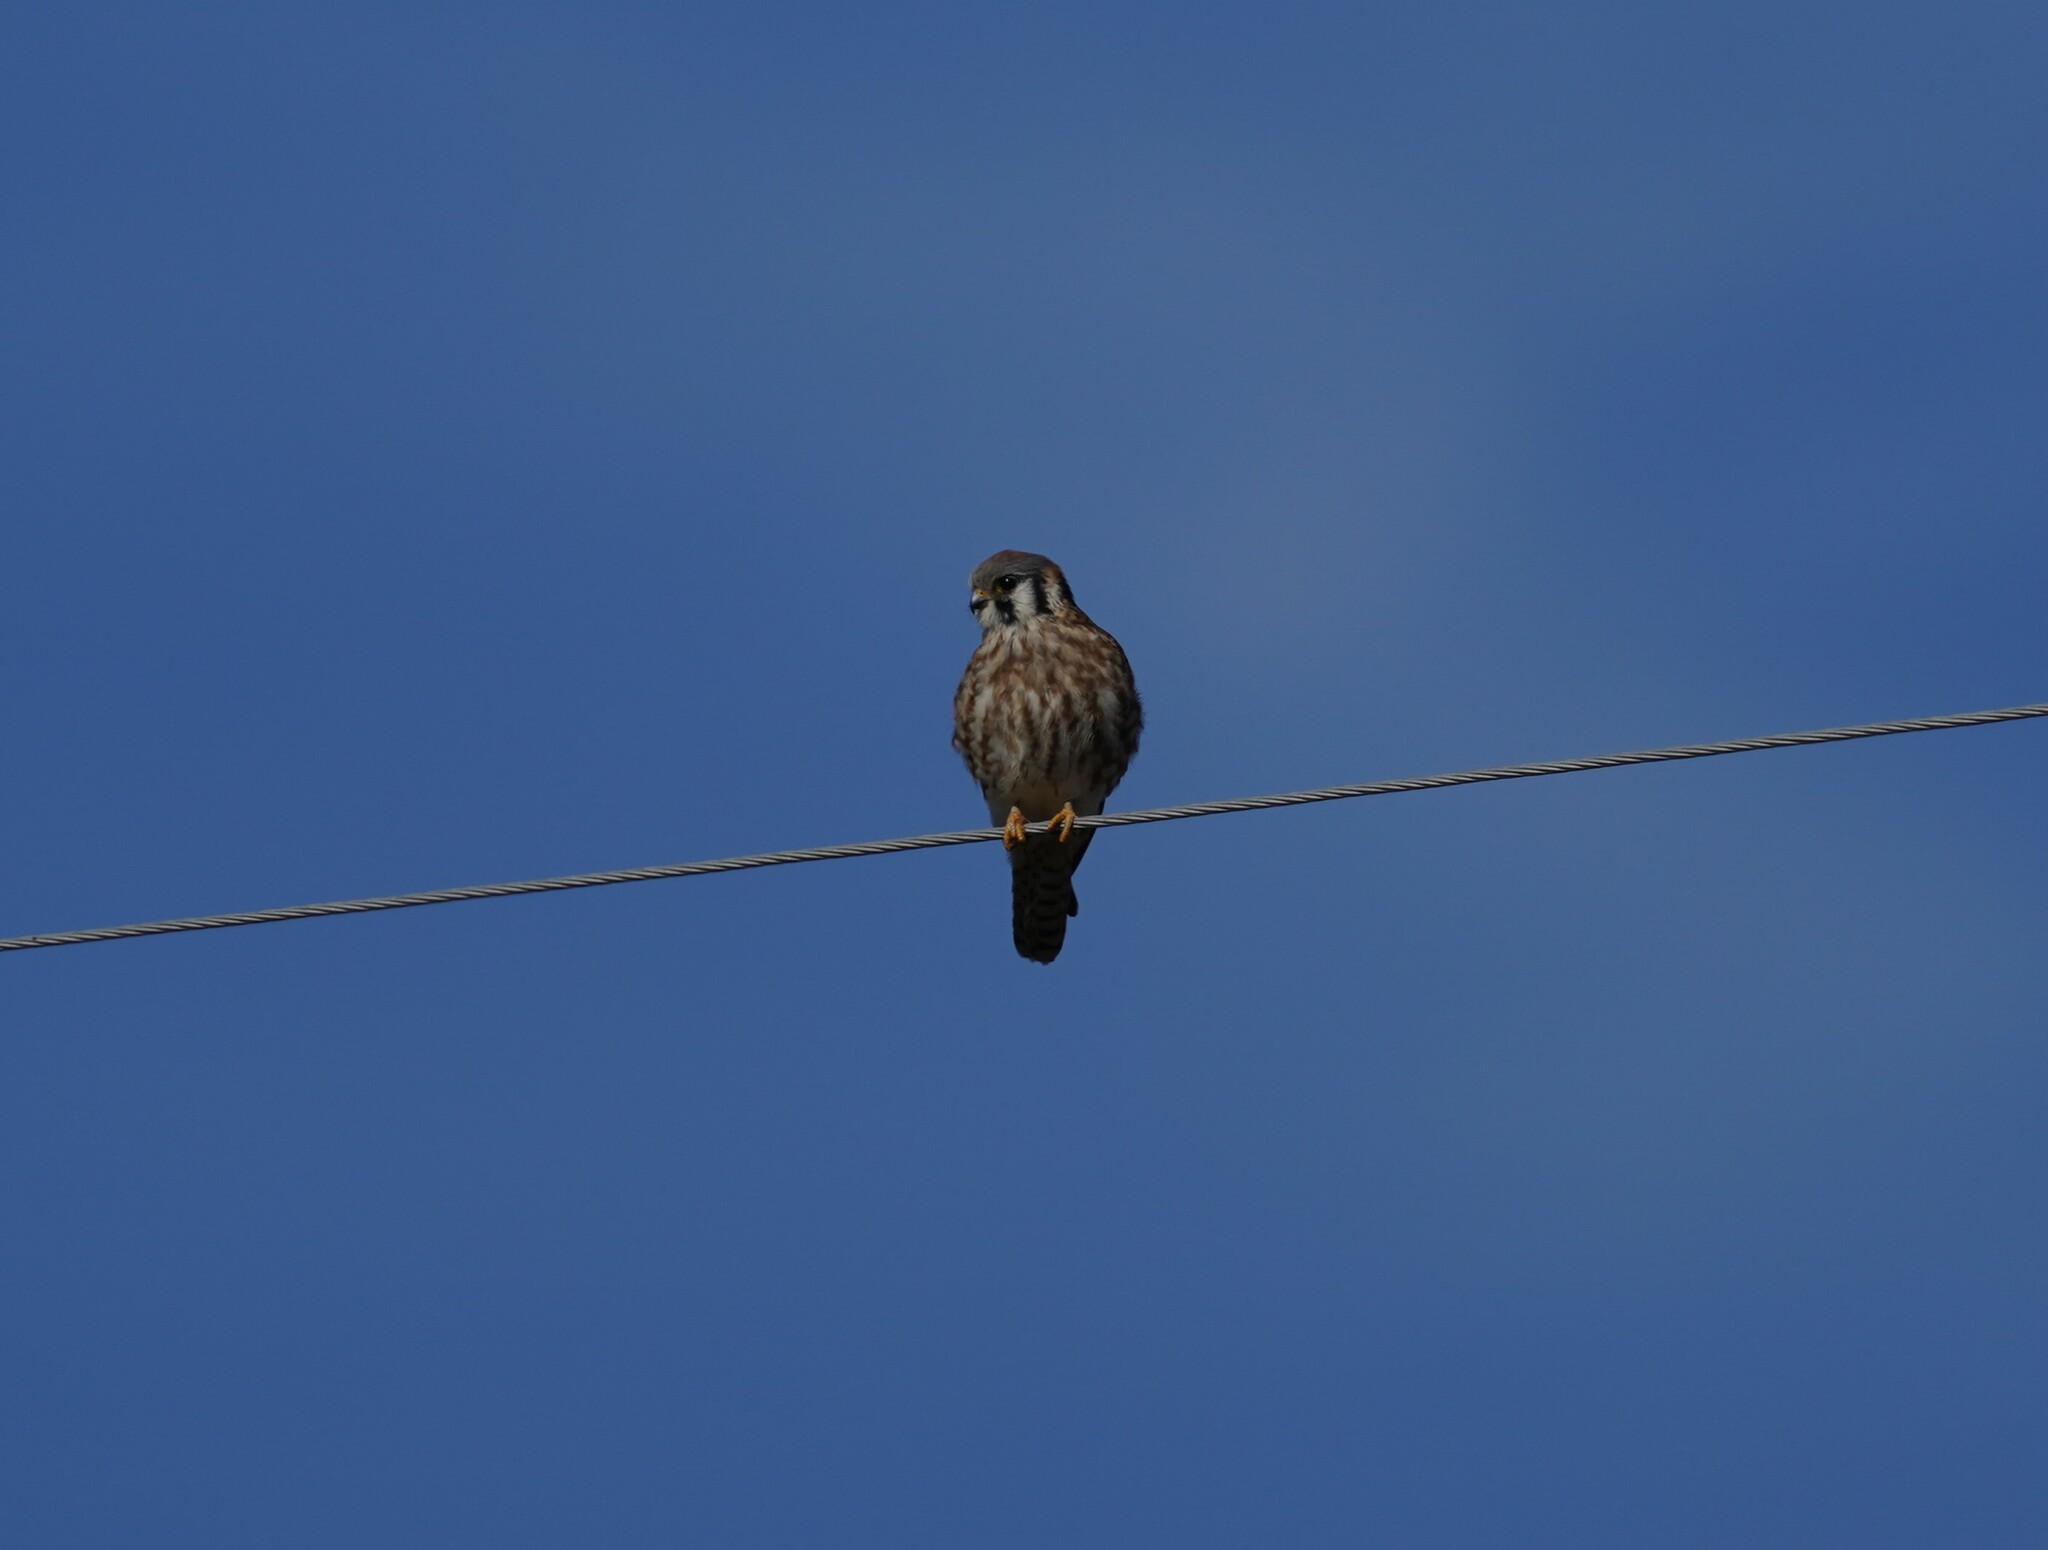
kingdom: Animalia
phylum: Chordata
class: Aves
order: Falconiformes
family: Falconidae
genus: Falco
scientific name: Falco sparverius
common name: American kestrel
